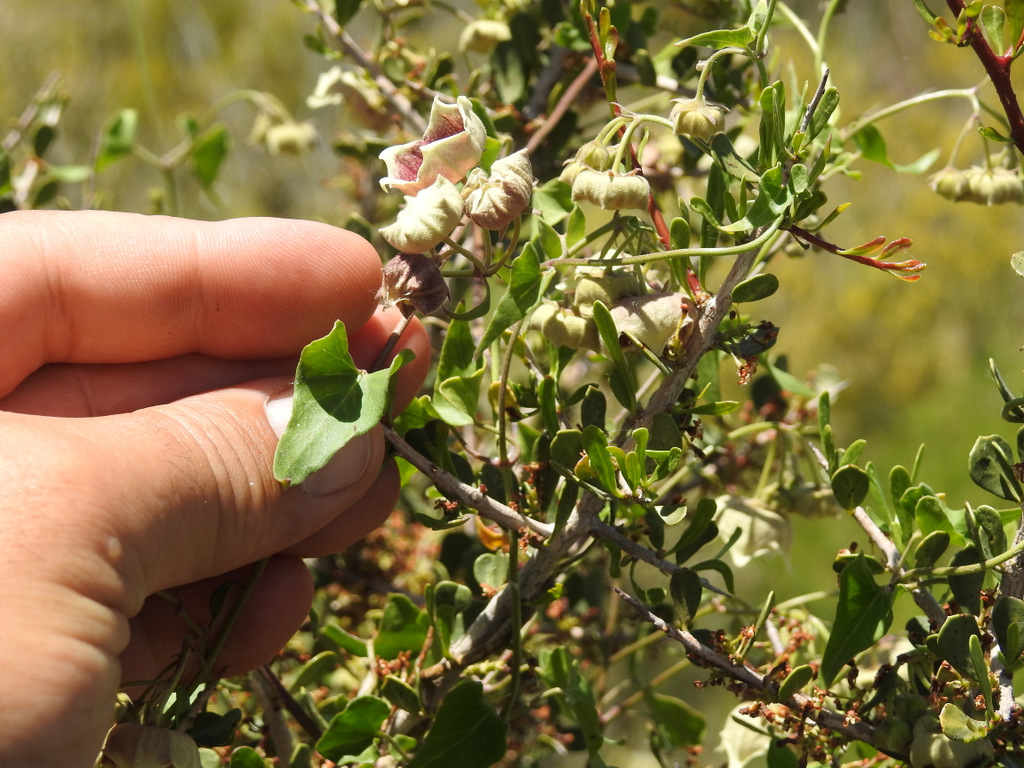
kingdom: Plantae
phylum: Tracheophyta
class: Magnoliopsida
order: Gentianales
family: Apocynaceae
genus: Philibertia
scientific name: Philibertia gilliesii
